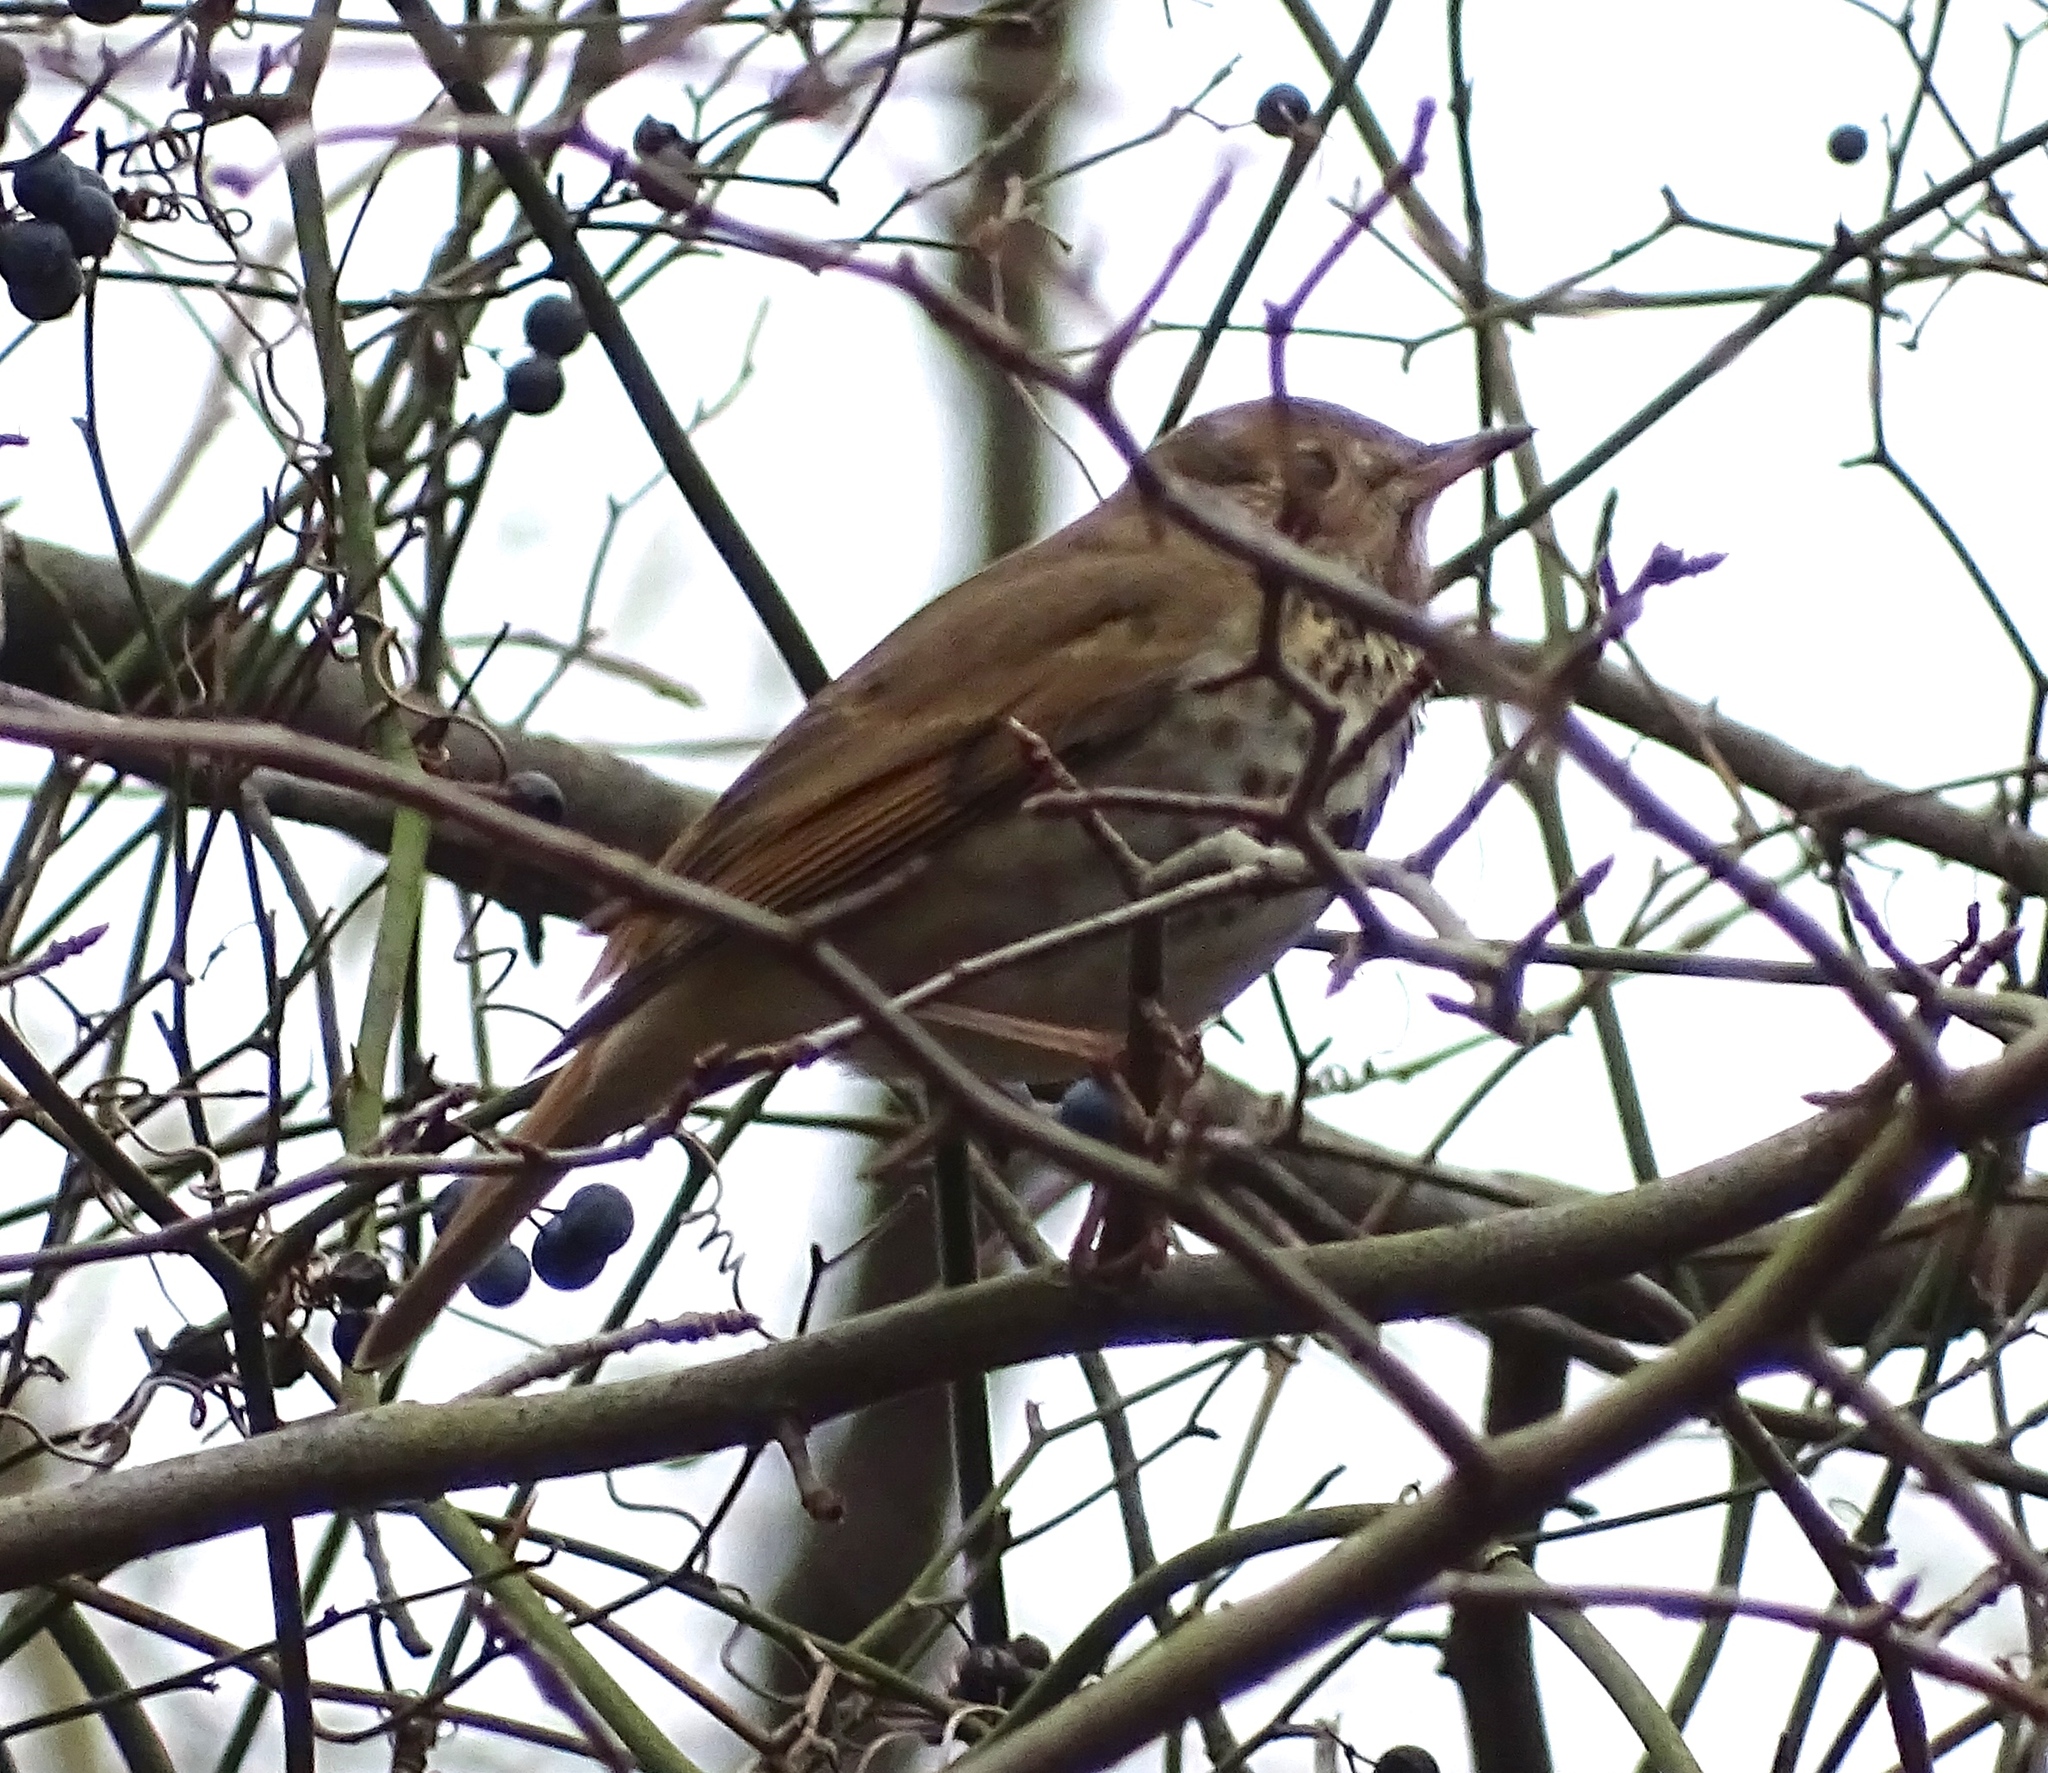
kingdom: Animalia
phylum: Chordata
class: Aves
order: Passeriformes
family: Turdidae
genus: Catharus
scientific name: Catharus guttatus
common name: Hermit thrush
